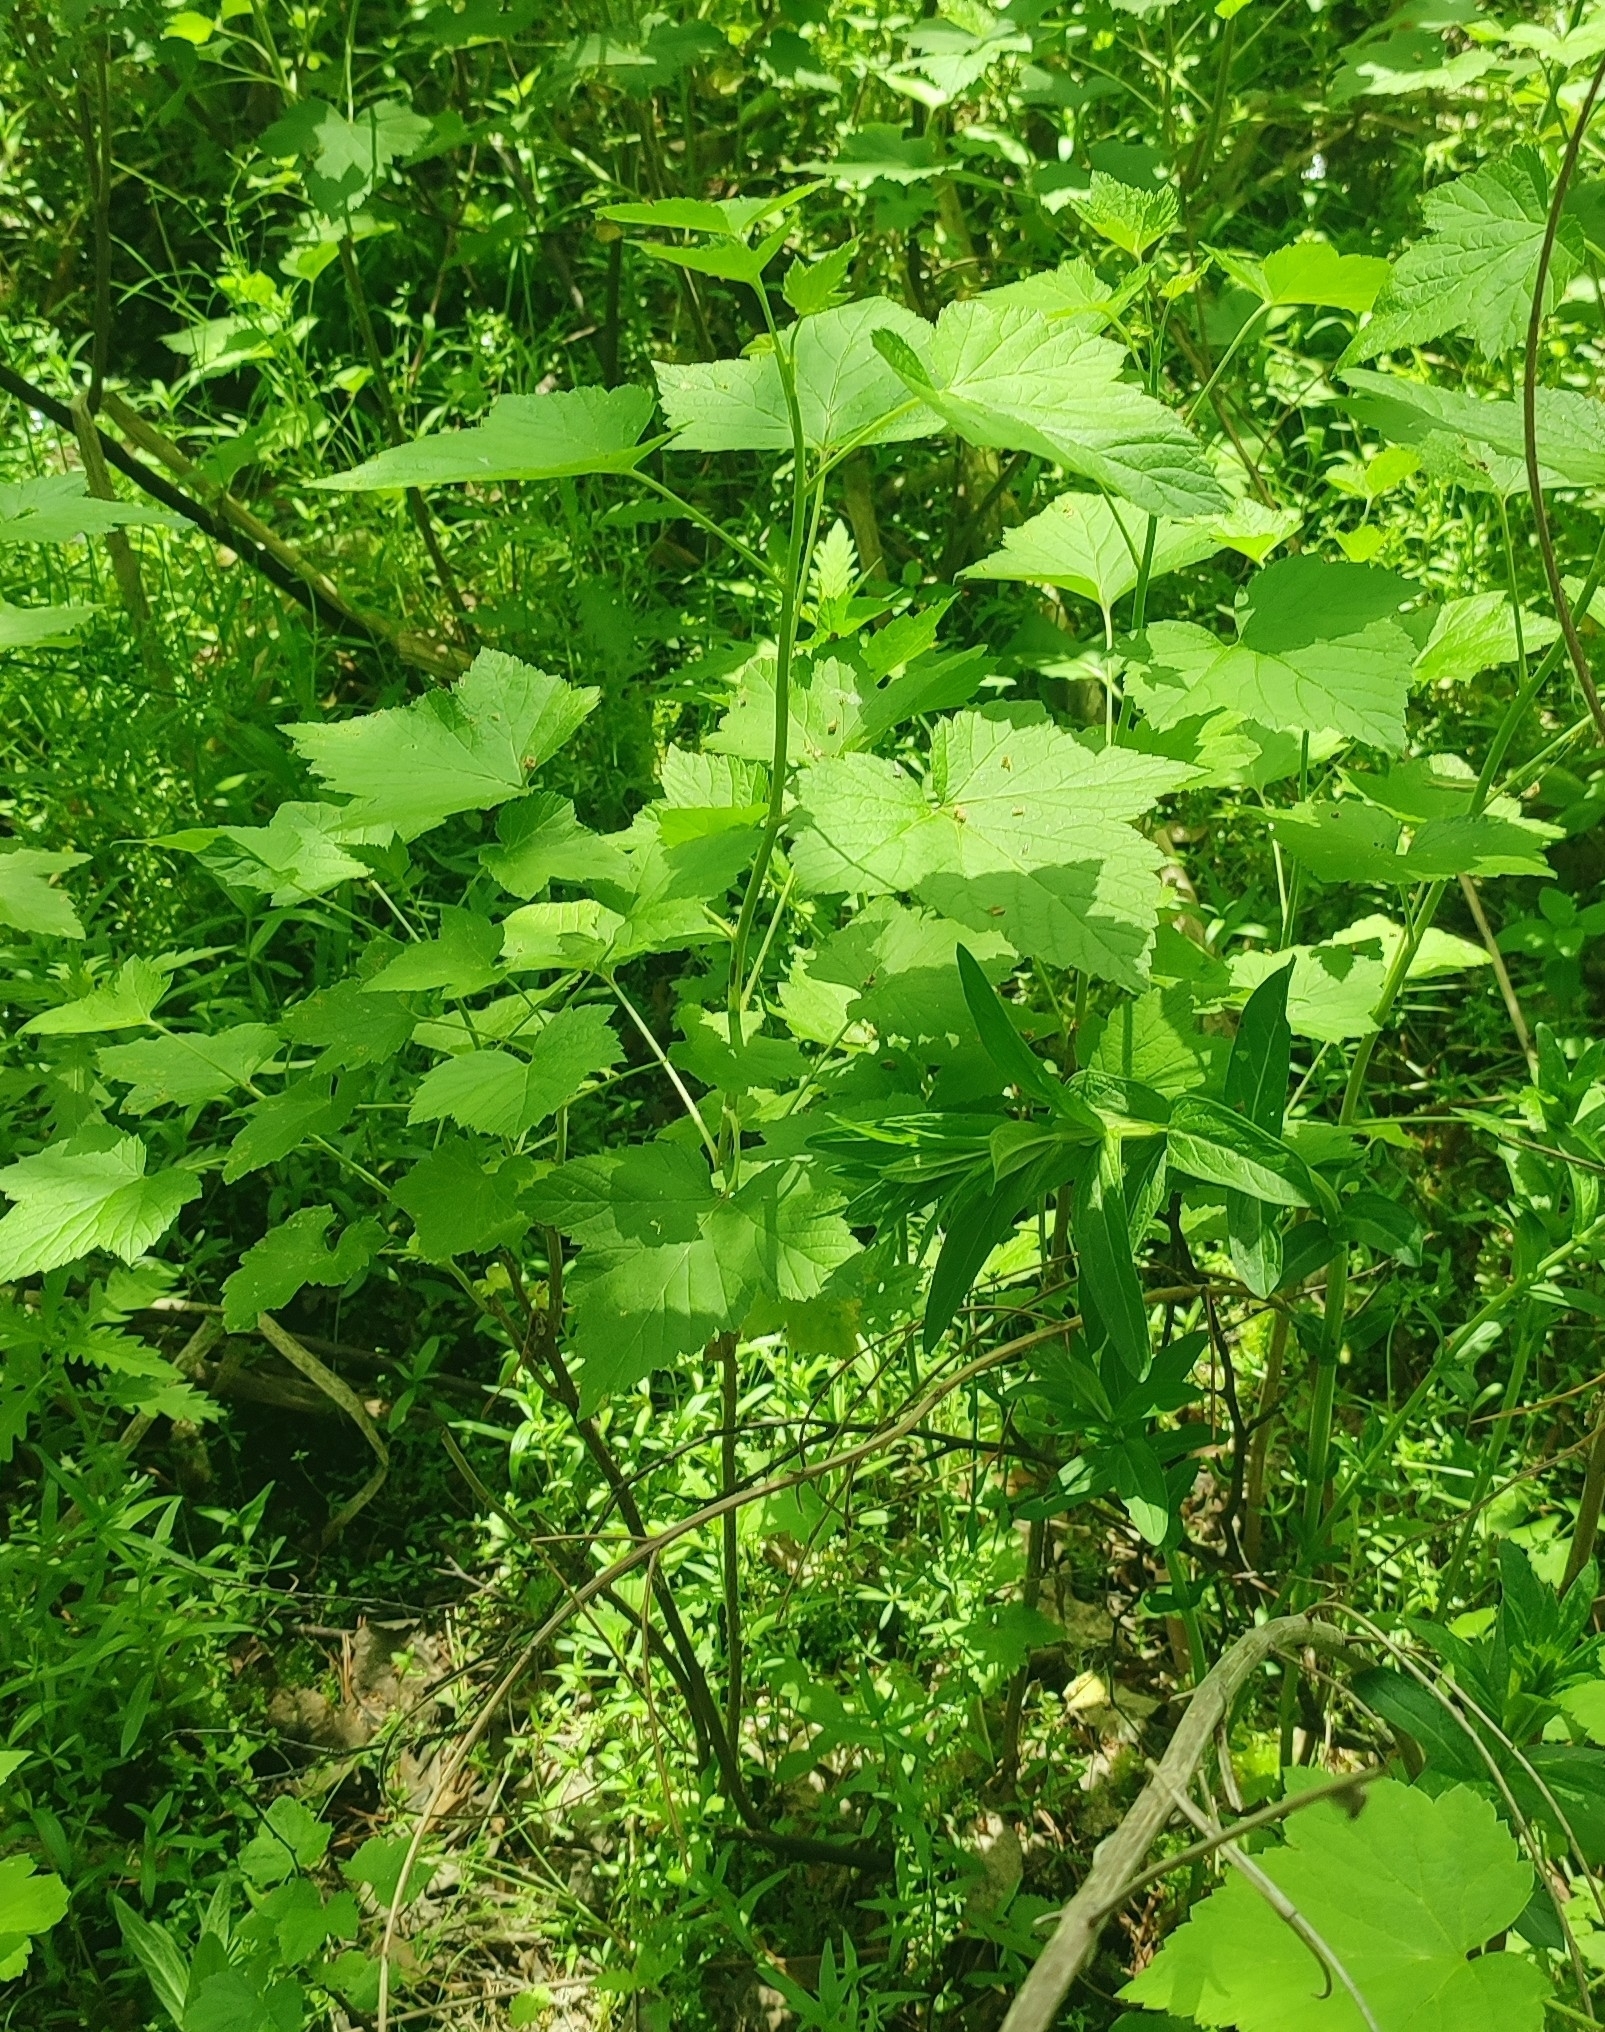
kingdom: Plantae
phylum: Tracheophyta
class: Magnoliopsida
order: Saxifragales
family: Grossulariaceae
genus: Ribes
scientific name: Ribes nigrum
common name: Black currant
